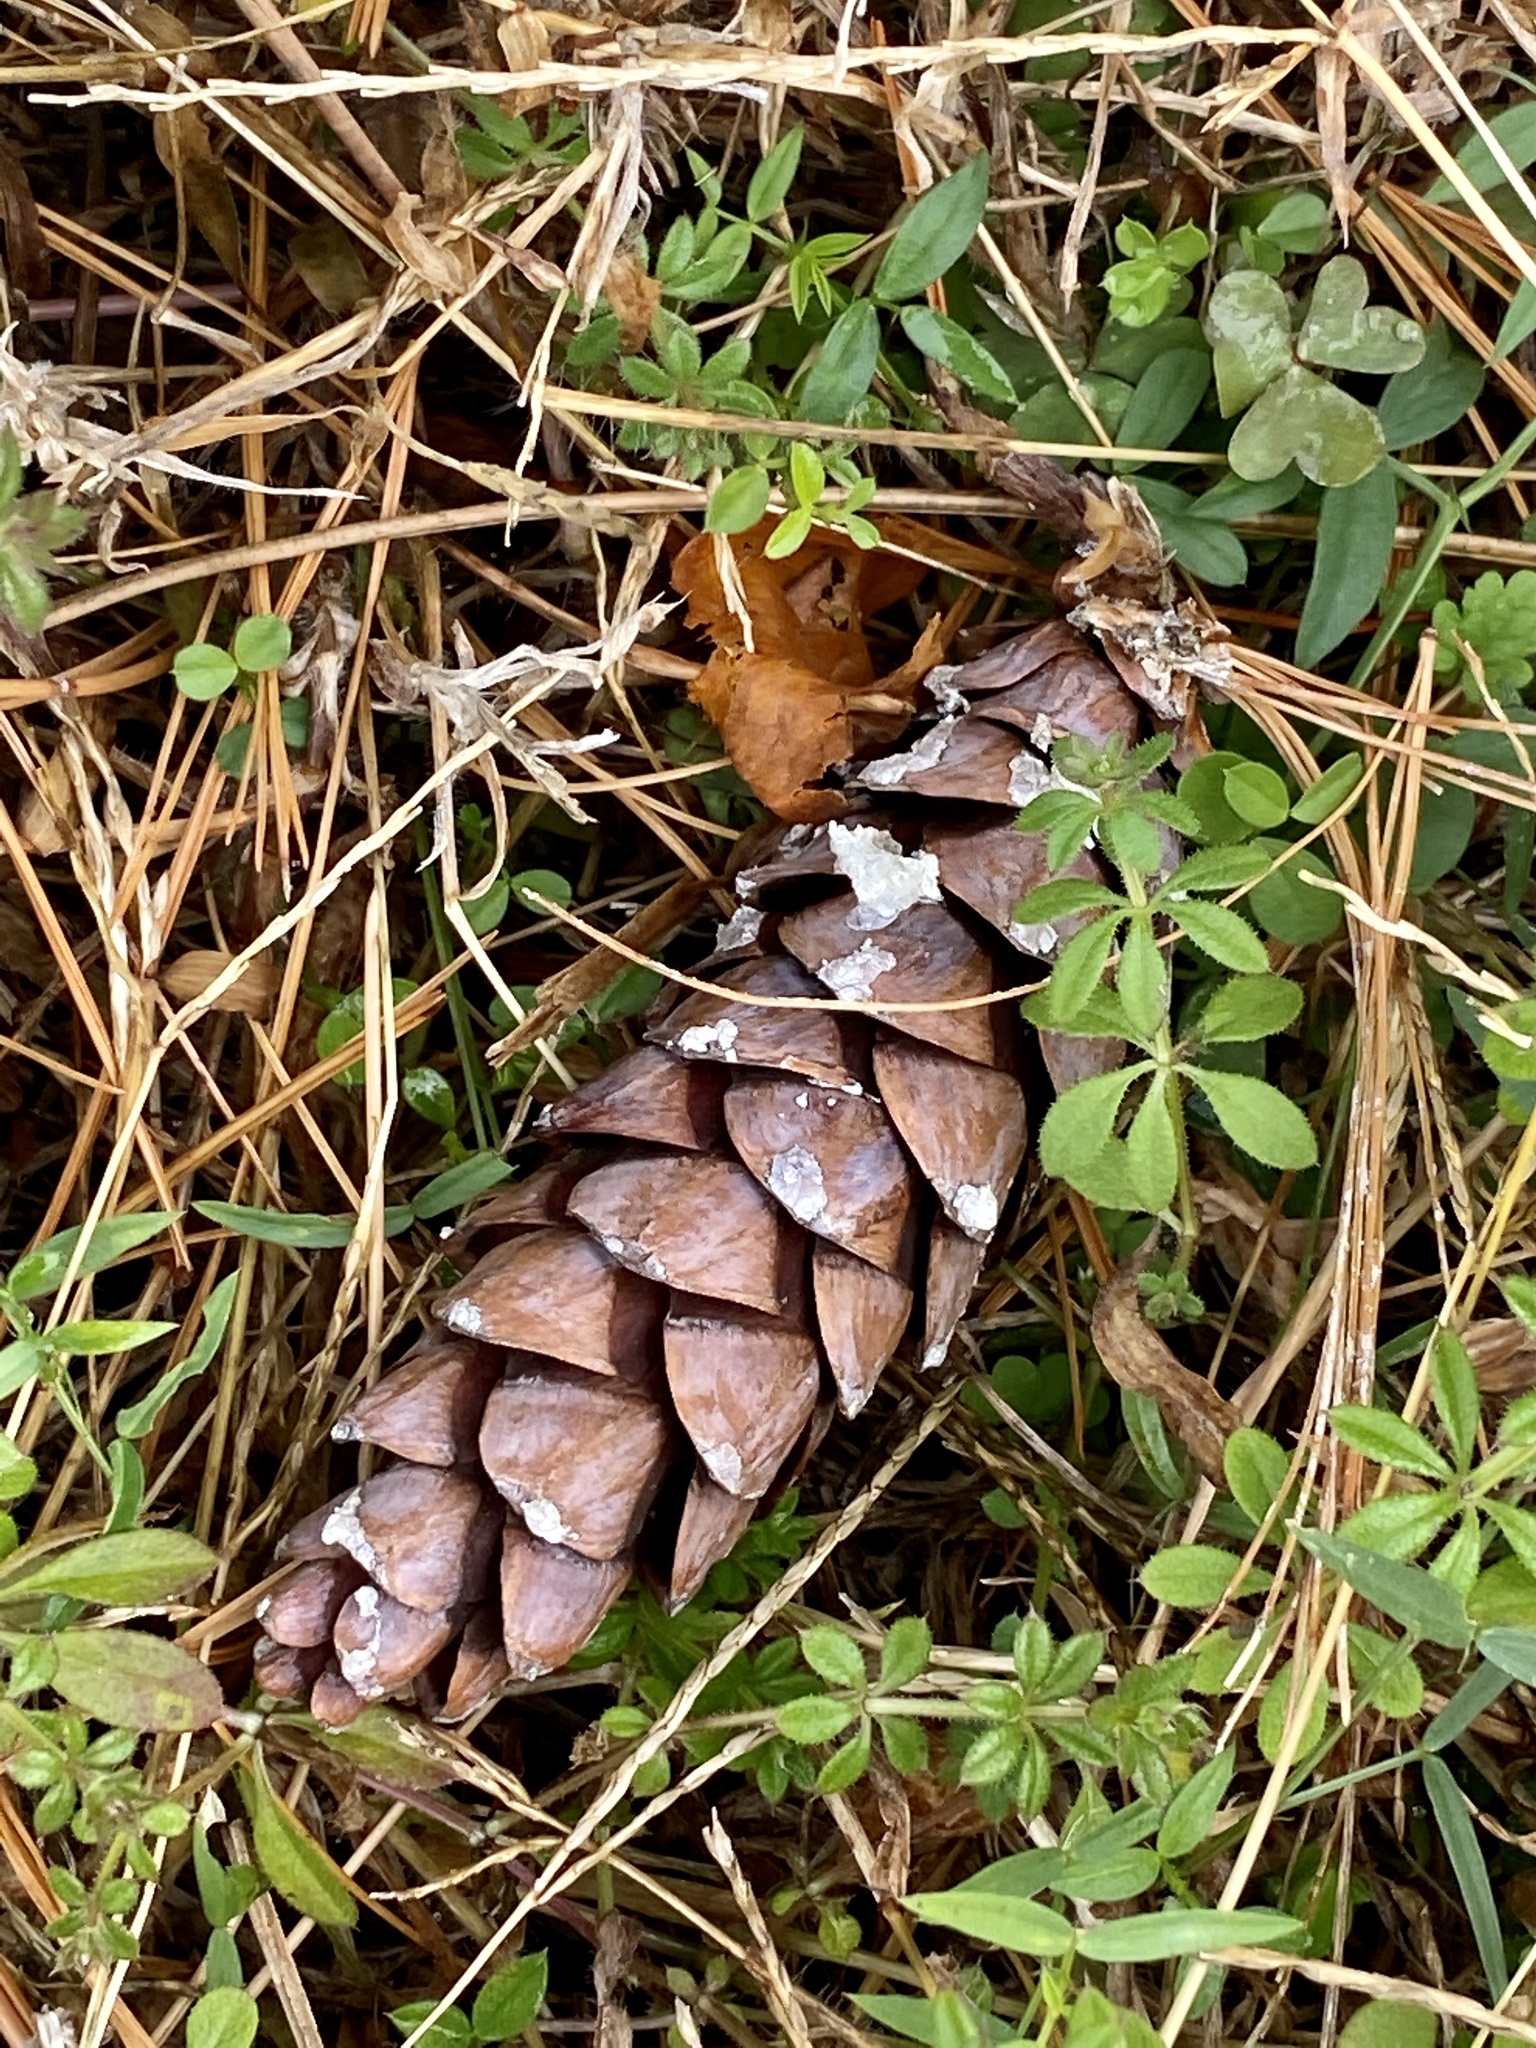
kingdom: Plantae
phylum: Tracheophyta
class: Pinopsida
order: Pinales
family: Pinaceae
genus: Pinus
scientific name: Pinus strobus
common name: Weymouth pine
